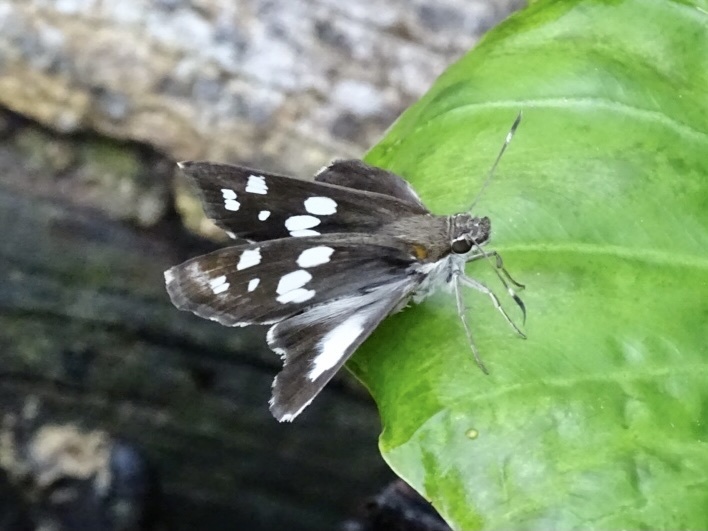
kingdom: Animalia
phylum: Arthropoda
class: Insecta
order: Lepidoptera
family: Hesperiidae
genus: Udaspes
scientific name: Udaspes folus
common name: Grass demon
